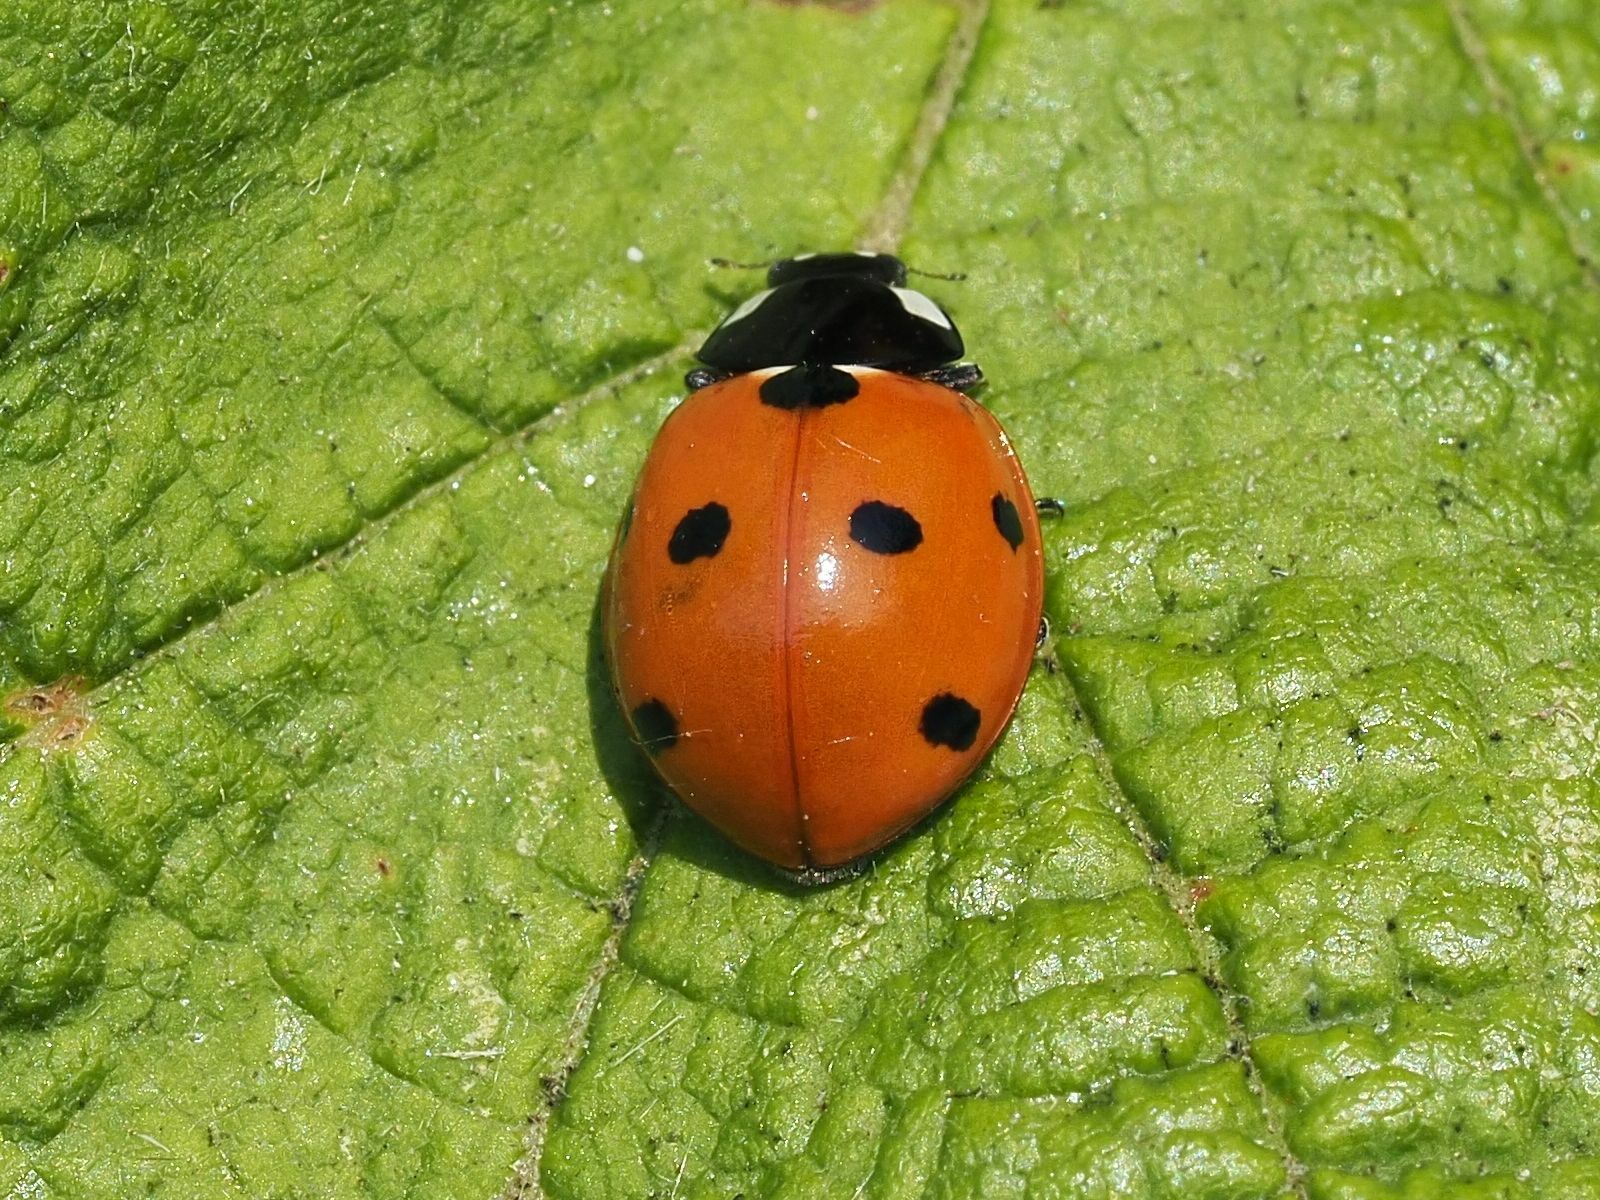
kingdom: Animalia
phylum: Arthropoda
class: Insecta
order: Coleoptera
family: Coccinellidae
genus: Coccinella
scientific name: Coccinella septempunctata
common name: Sevenspotted lady beetle
